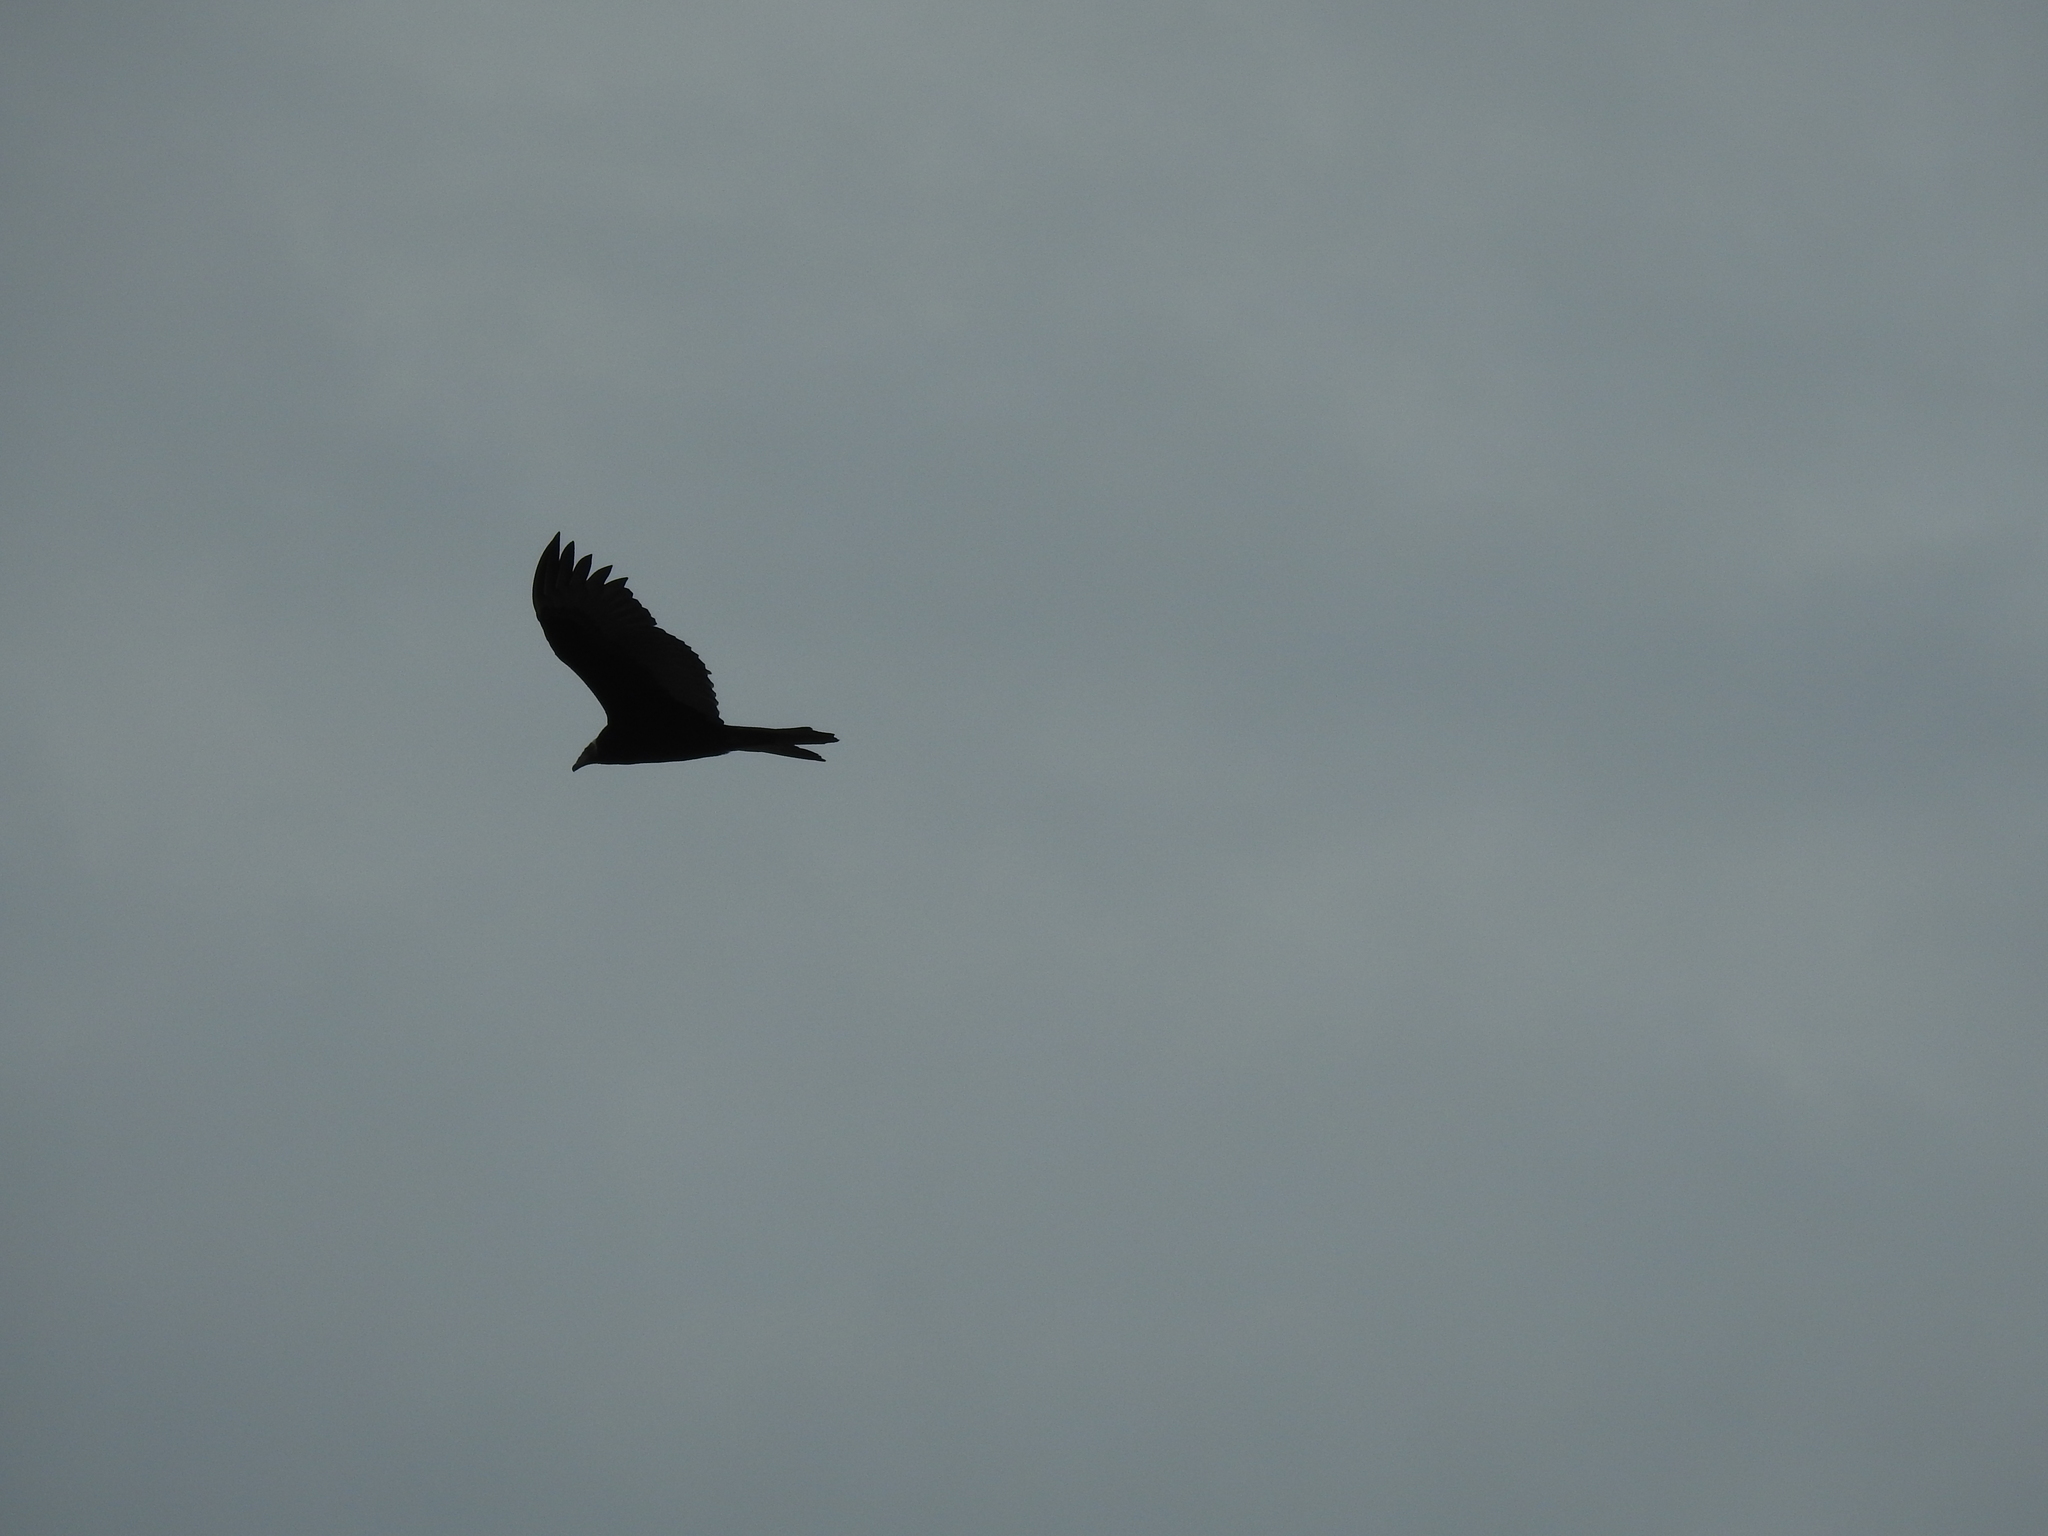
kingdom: Animalia
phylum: Chordata
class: Aves
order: Accipitriformes
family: Cathartidae
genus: Cathartes
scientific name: Cathartes aura
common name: Turkey vulture
